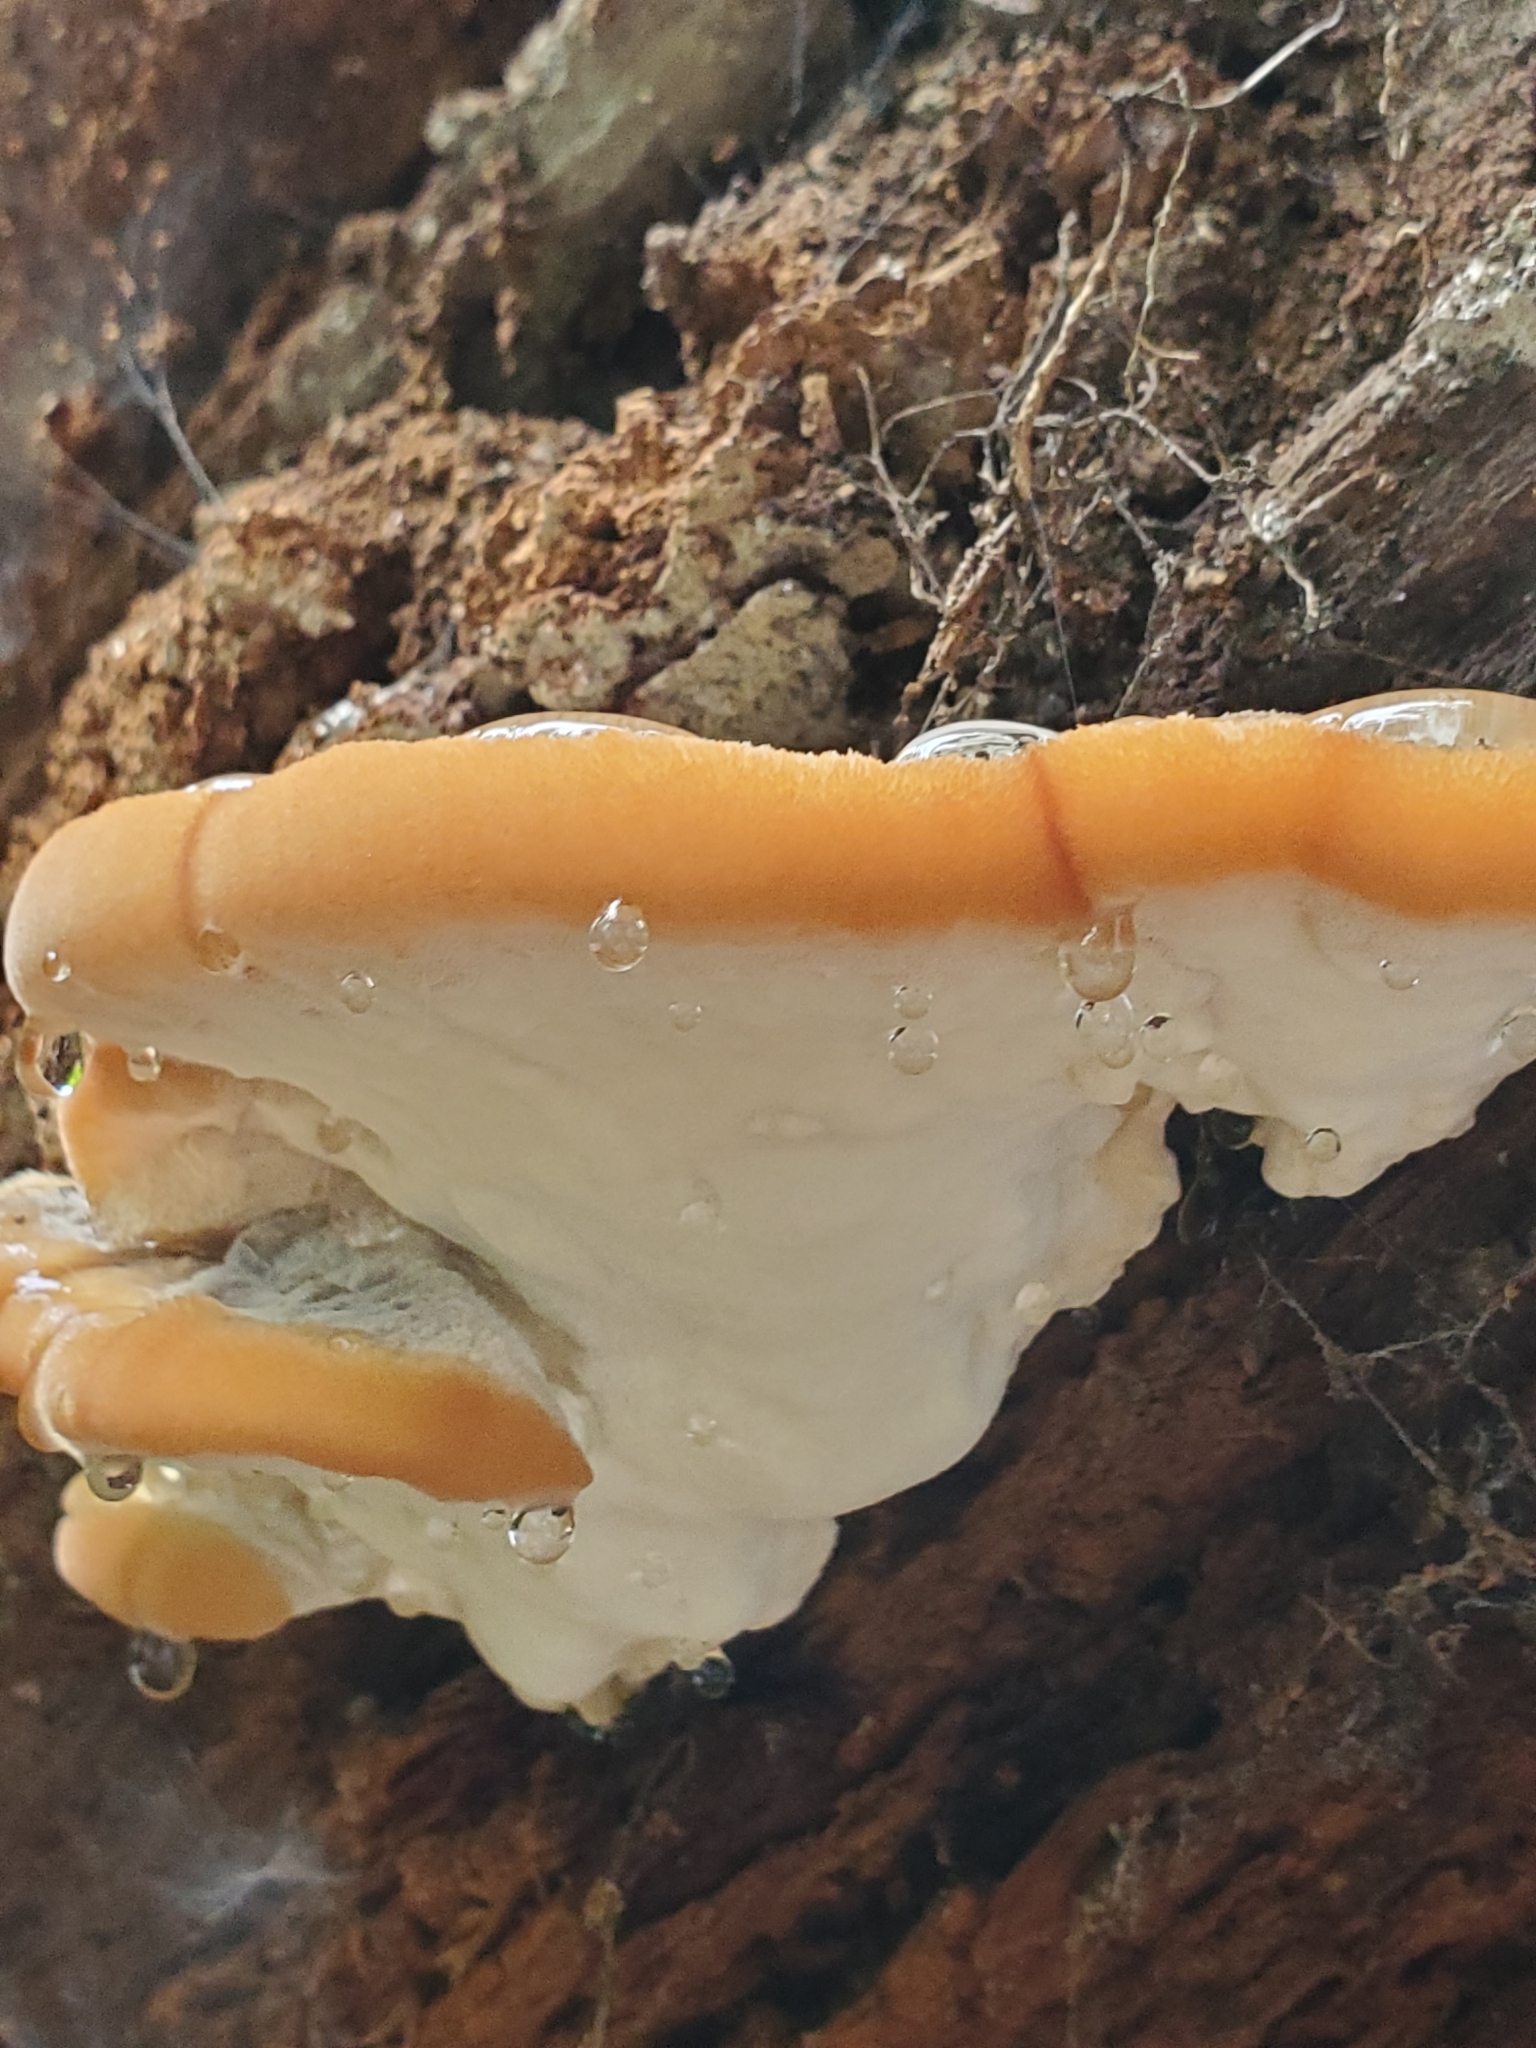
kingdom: Fungi
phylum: Basidiomycota
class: Agaricomycetes
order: Polyporales
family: Fomitopsidaceae
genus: Niveoporofomes
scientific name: Niveoporofomes spraguei
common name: Green cheese polypore
